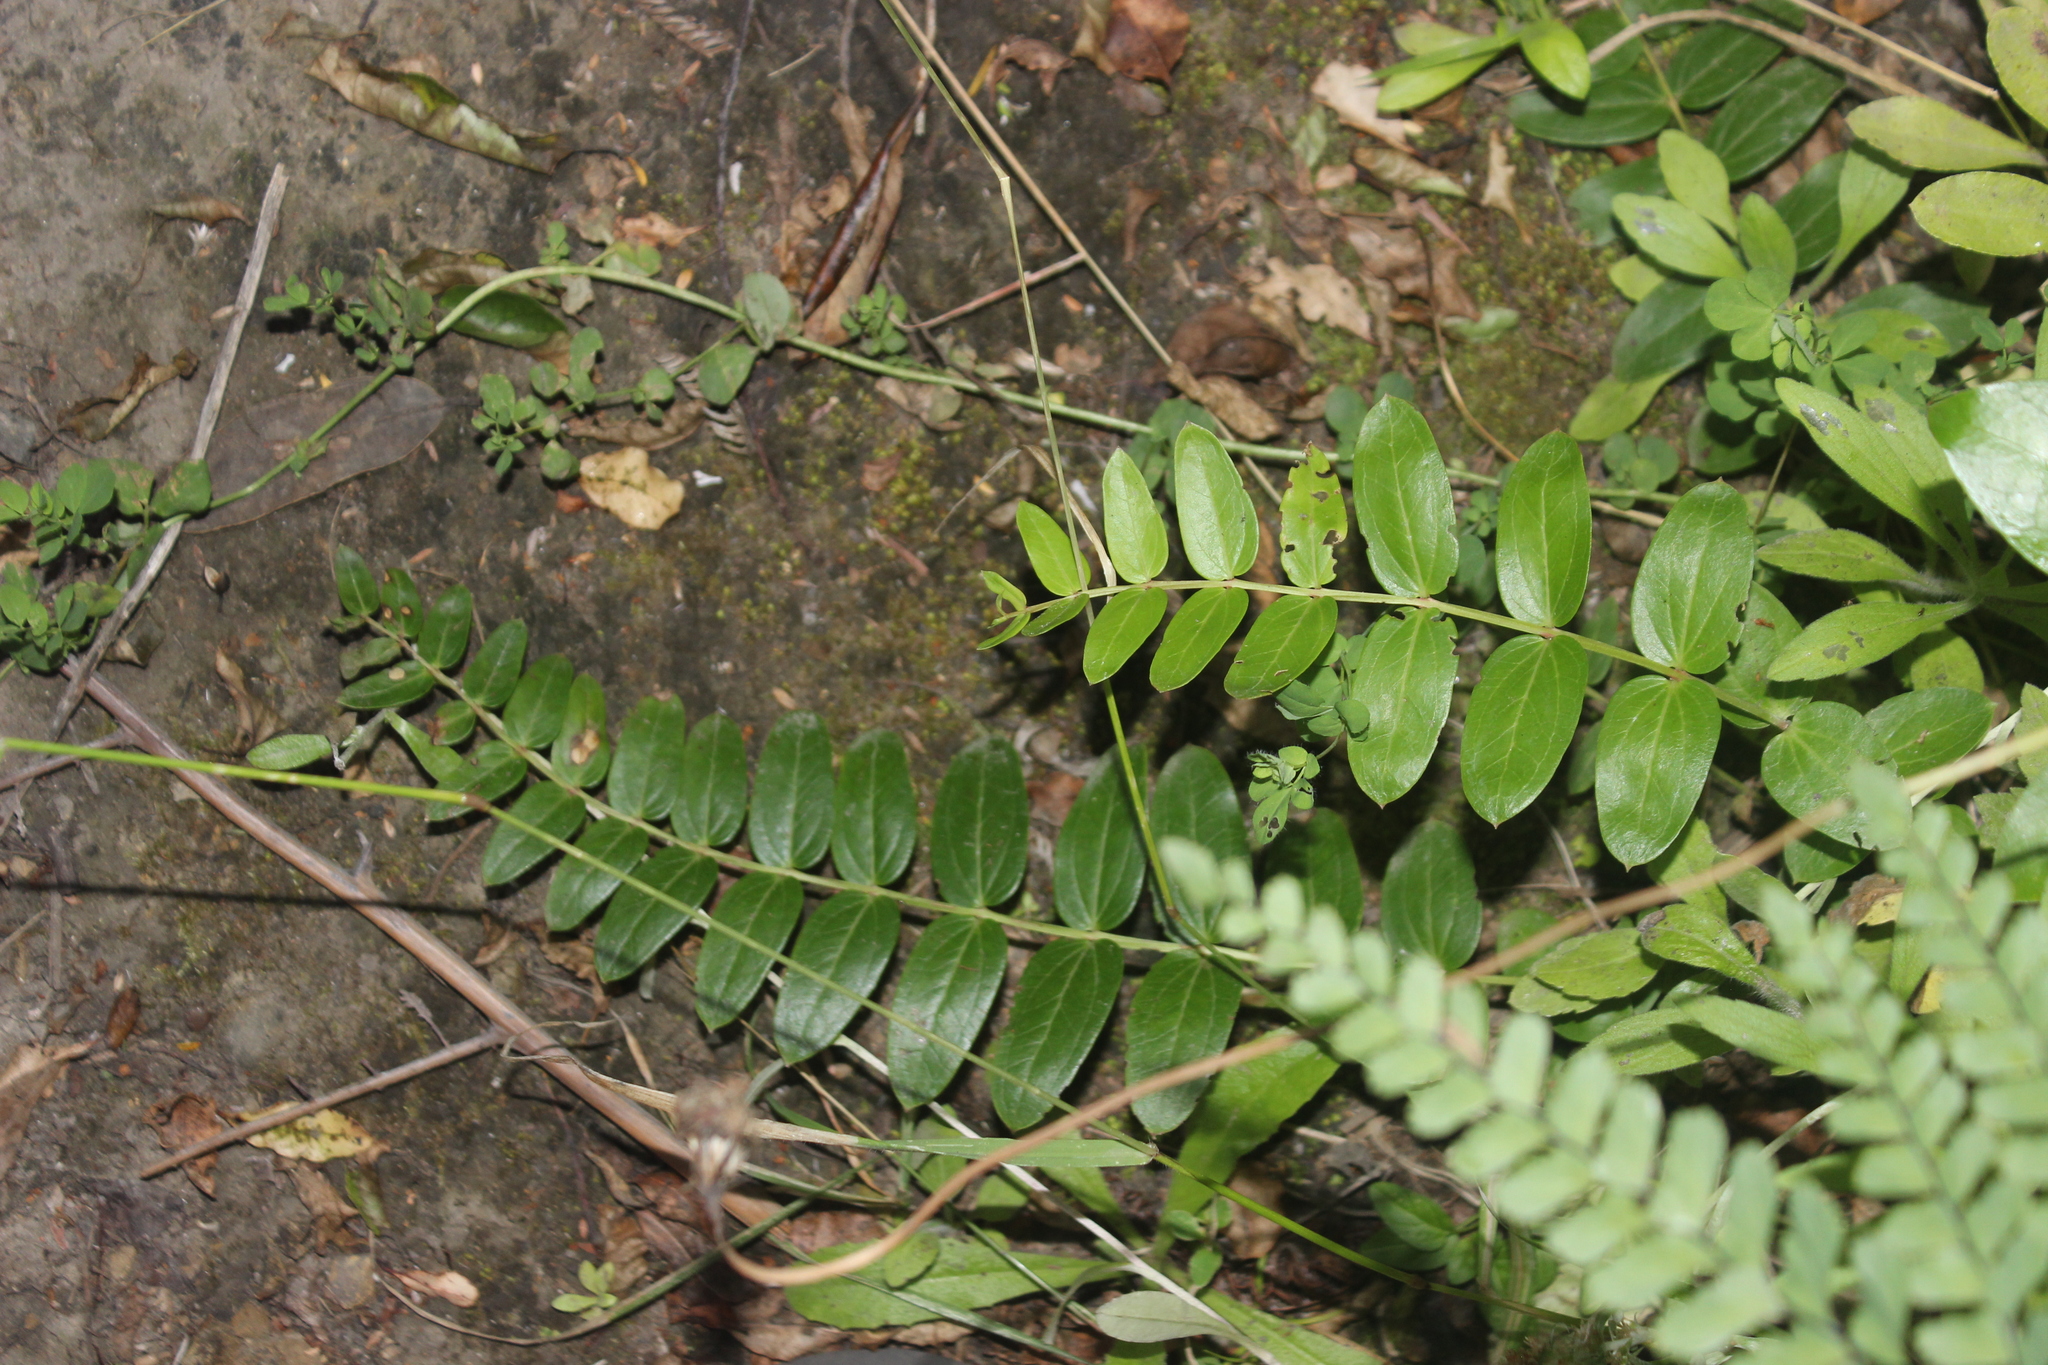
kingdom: Plantae
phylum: Tracheophyta
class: Magnoliopsida
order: Cucurbitales
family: Coriariaceae
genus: Coriaria
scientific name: Coriaria arborea
